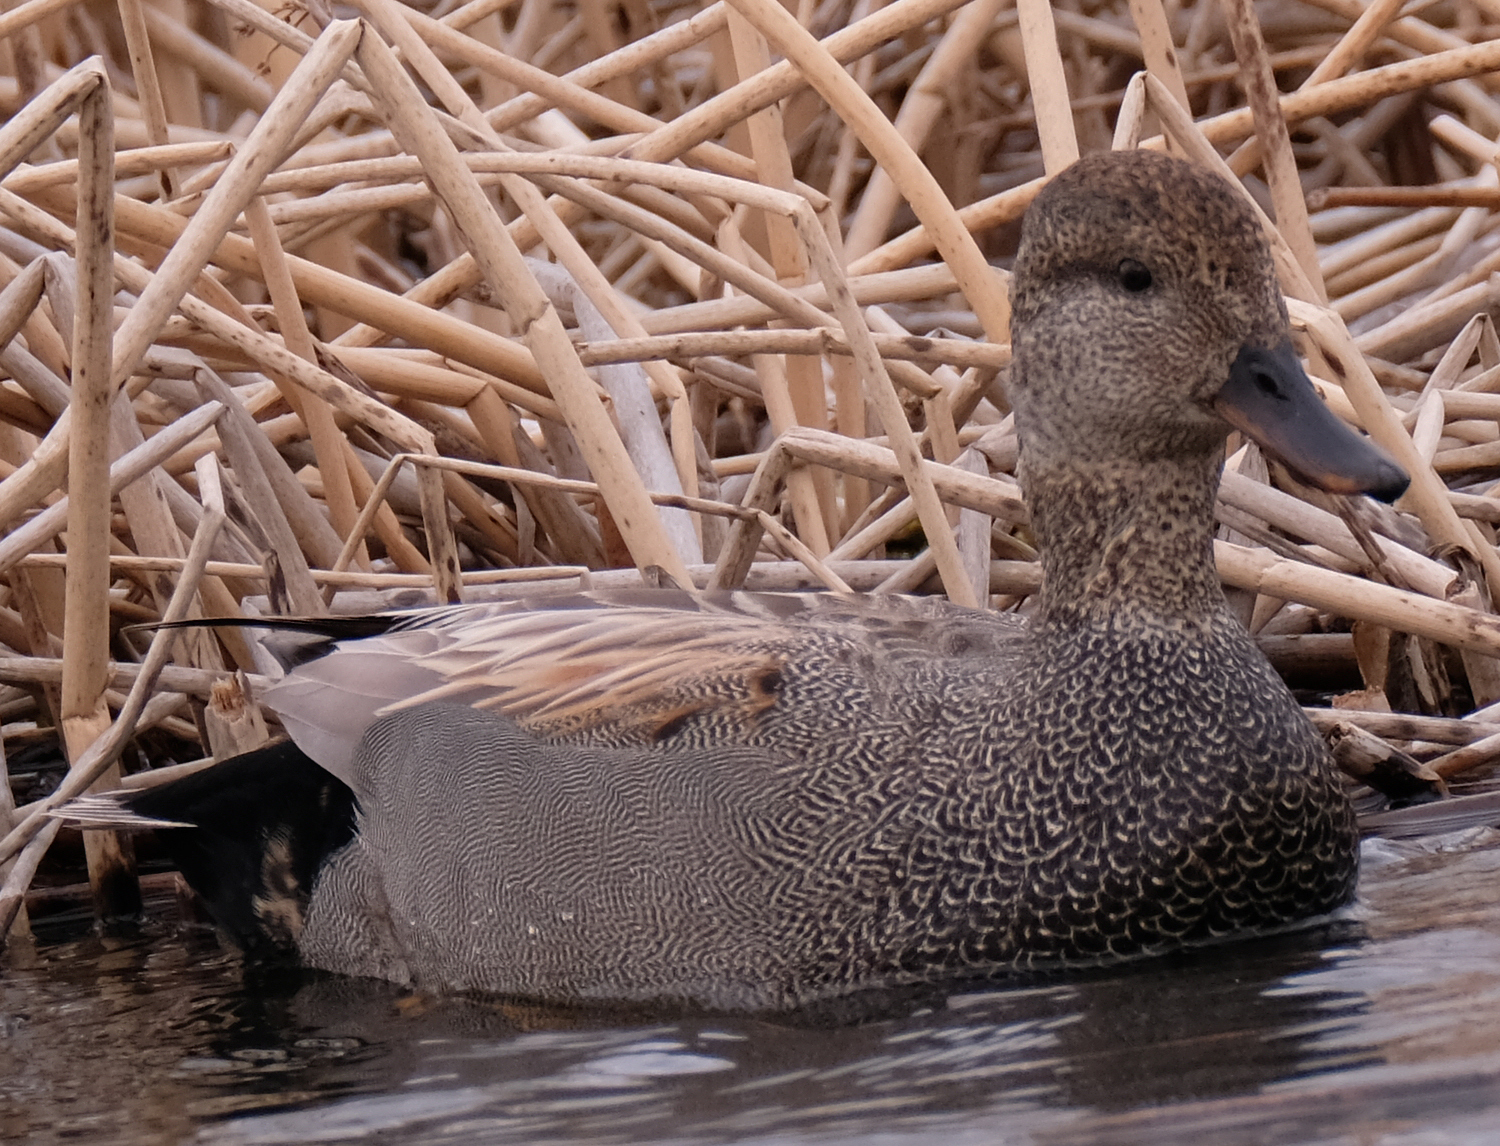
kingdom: Animalia
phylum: Chordata
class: Aves
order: Anseriformes
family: Anatidae
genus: Mareca
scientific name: Mareca strepera
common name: Gadwall
